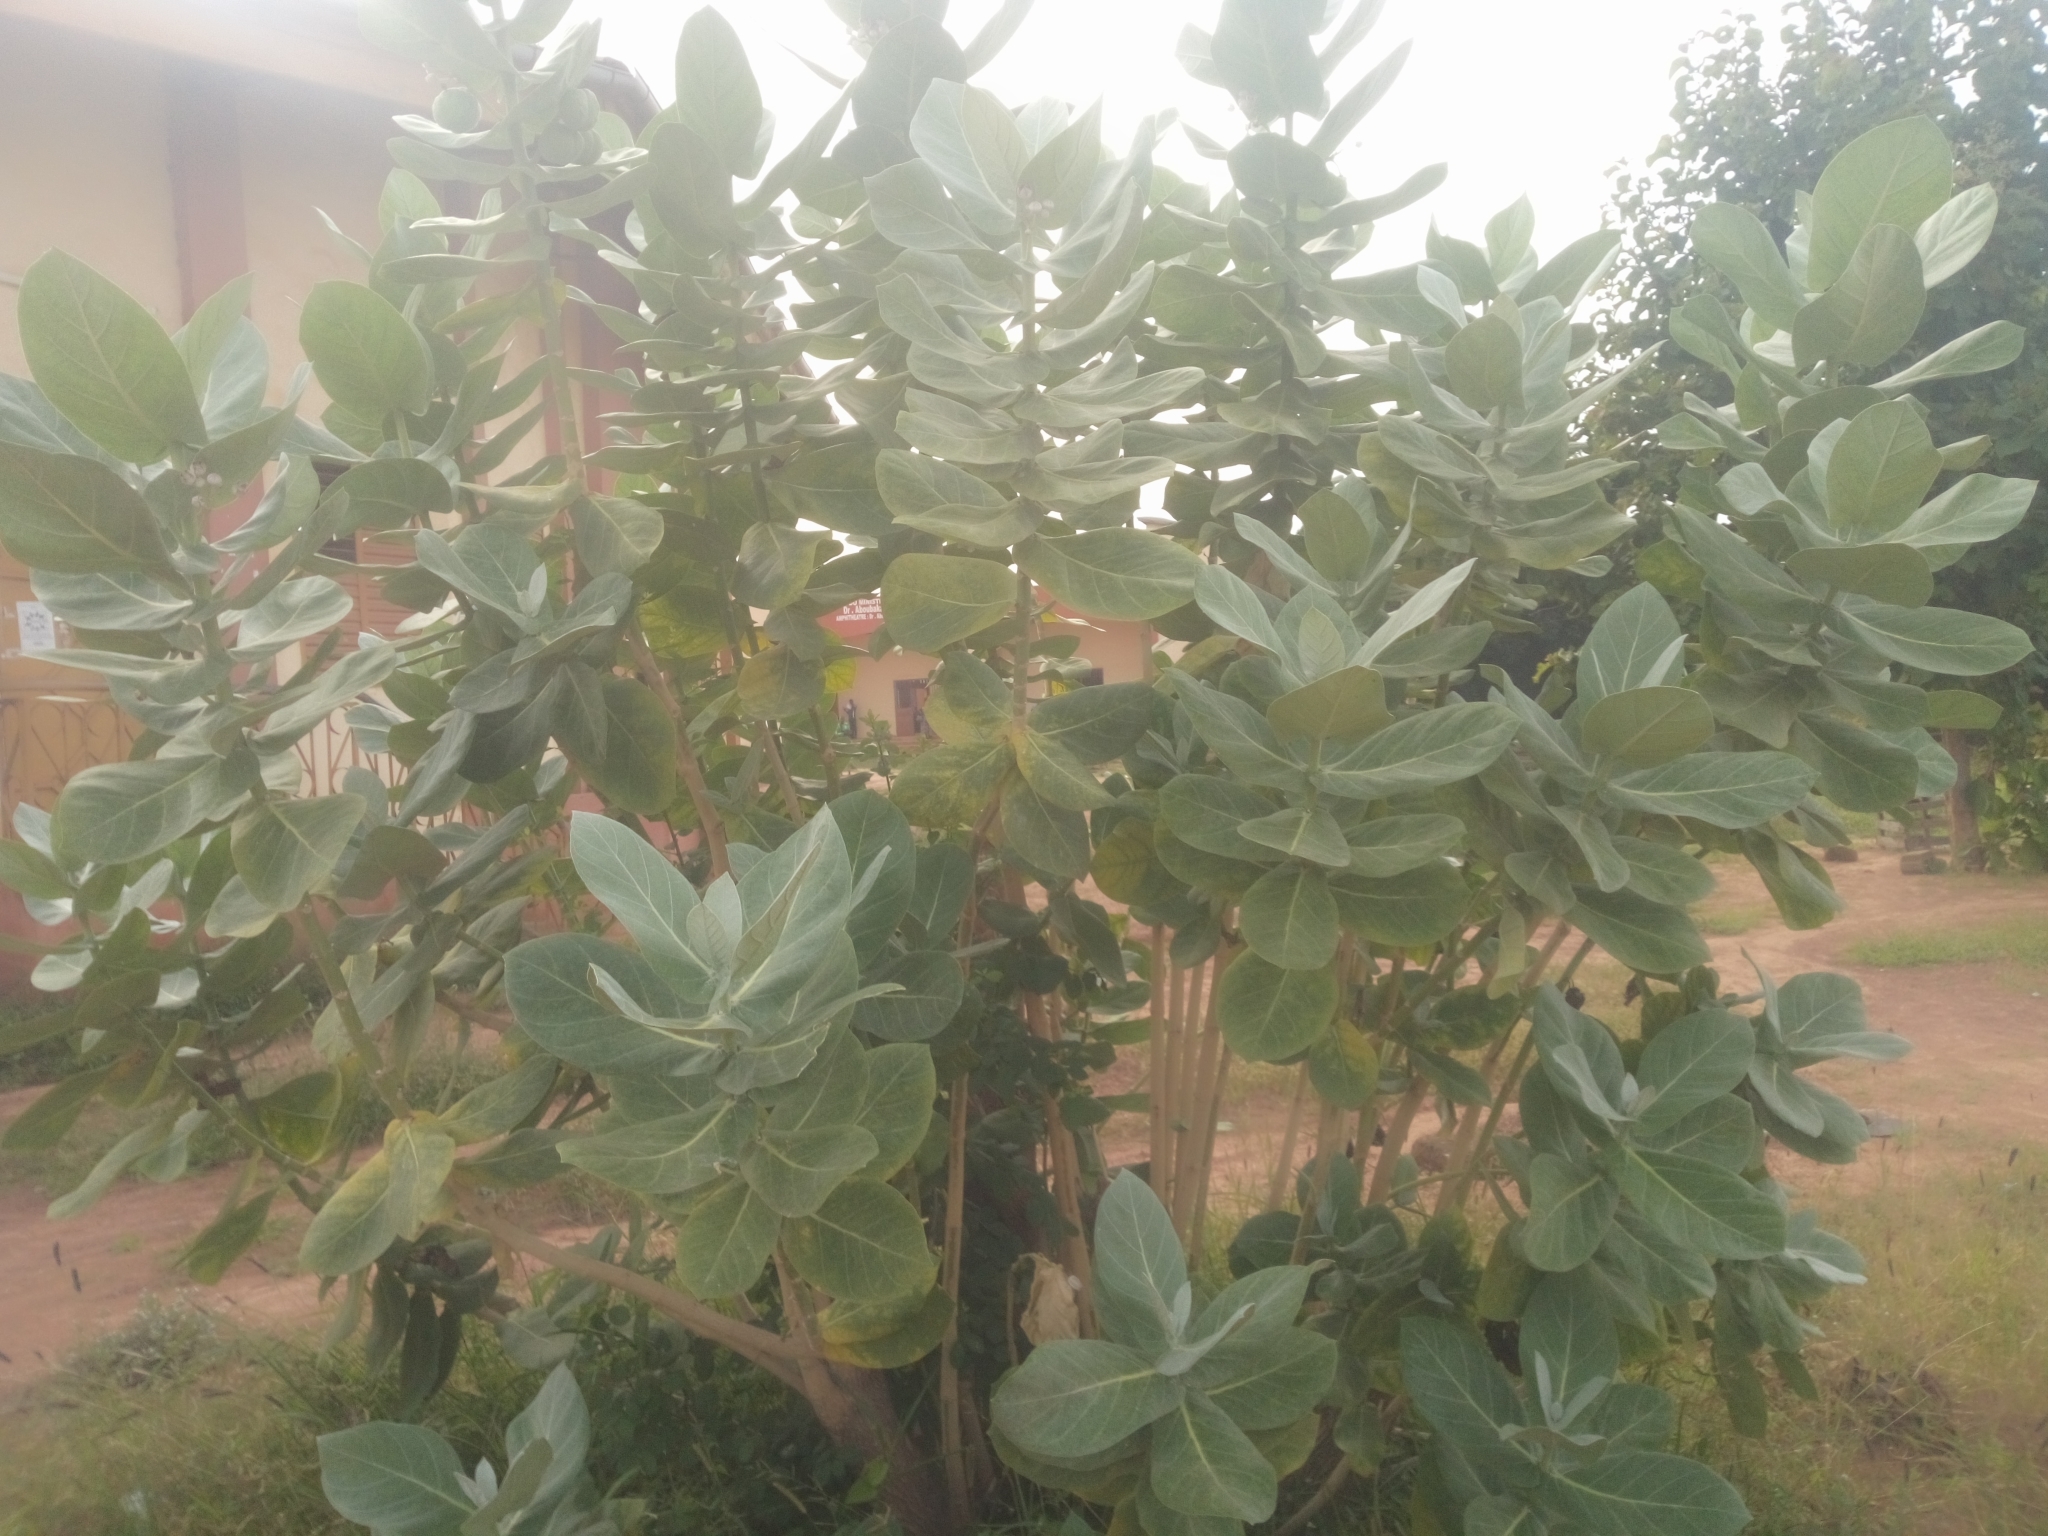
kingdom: Plantae
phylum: Tracheophyta
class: Magnoliopsida
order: Gentianales
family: Apocynaceae
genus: Calotropis
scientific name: Calotropis procera
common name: Roostertree
